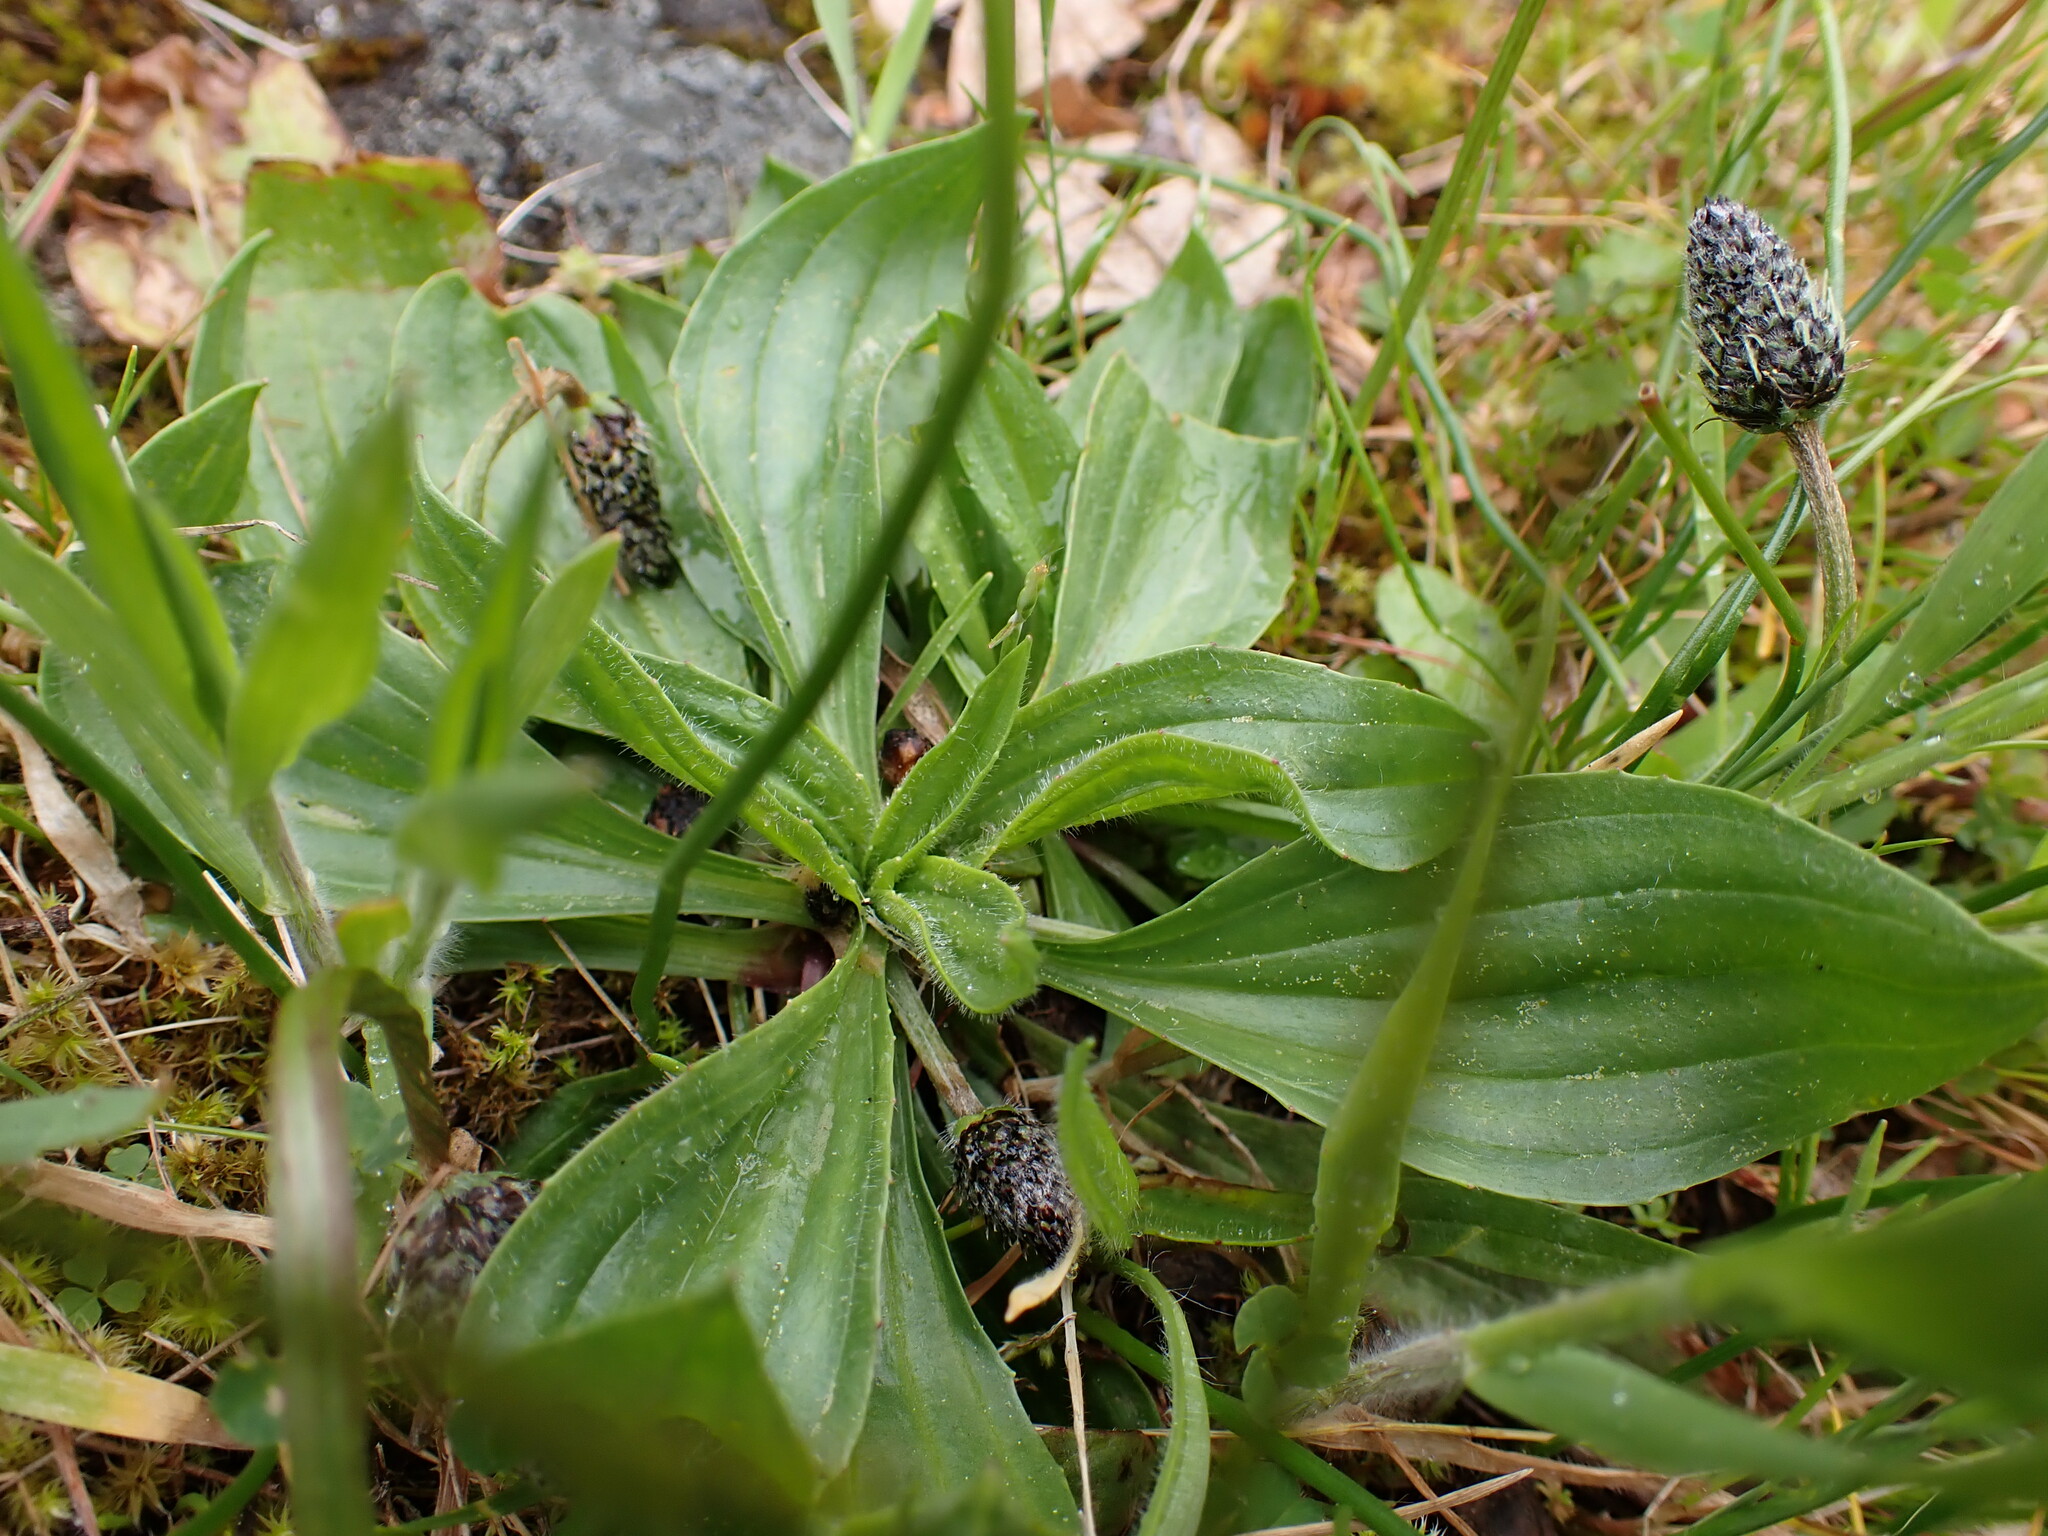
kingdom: Plantae
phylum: Tracheophyta
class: Magnoliopsida
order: Lamiales
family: Plantaginaceae
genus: Plantago
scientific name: Plantago lanceolata
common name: Ribwort plantain
